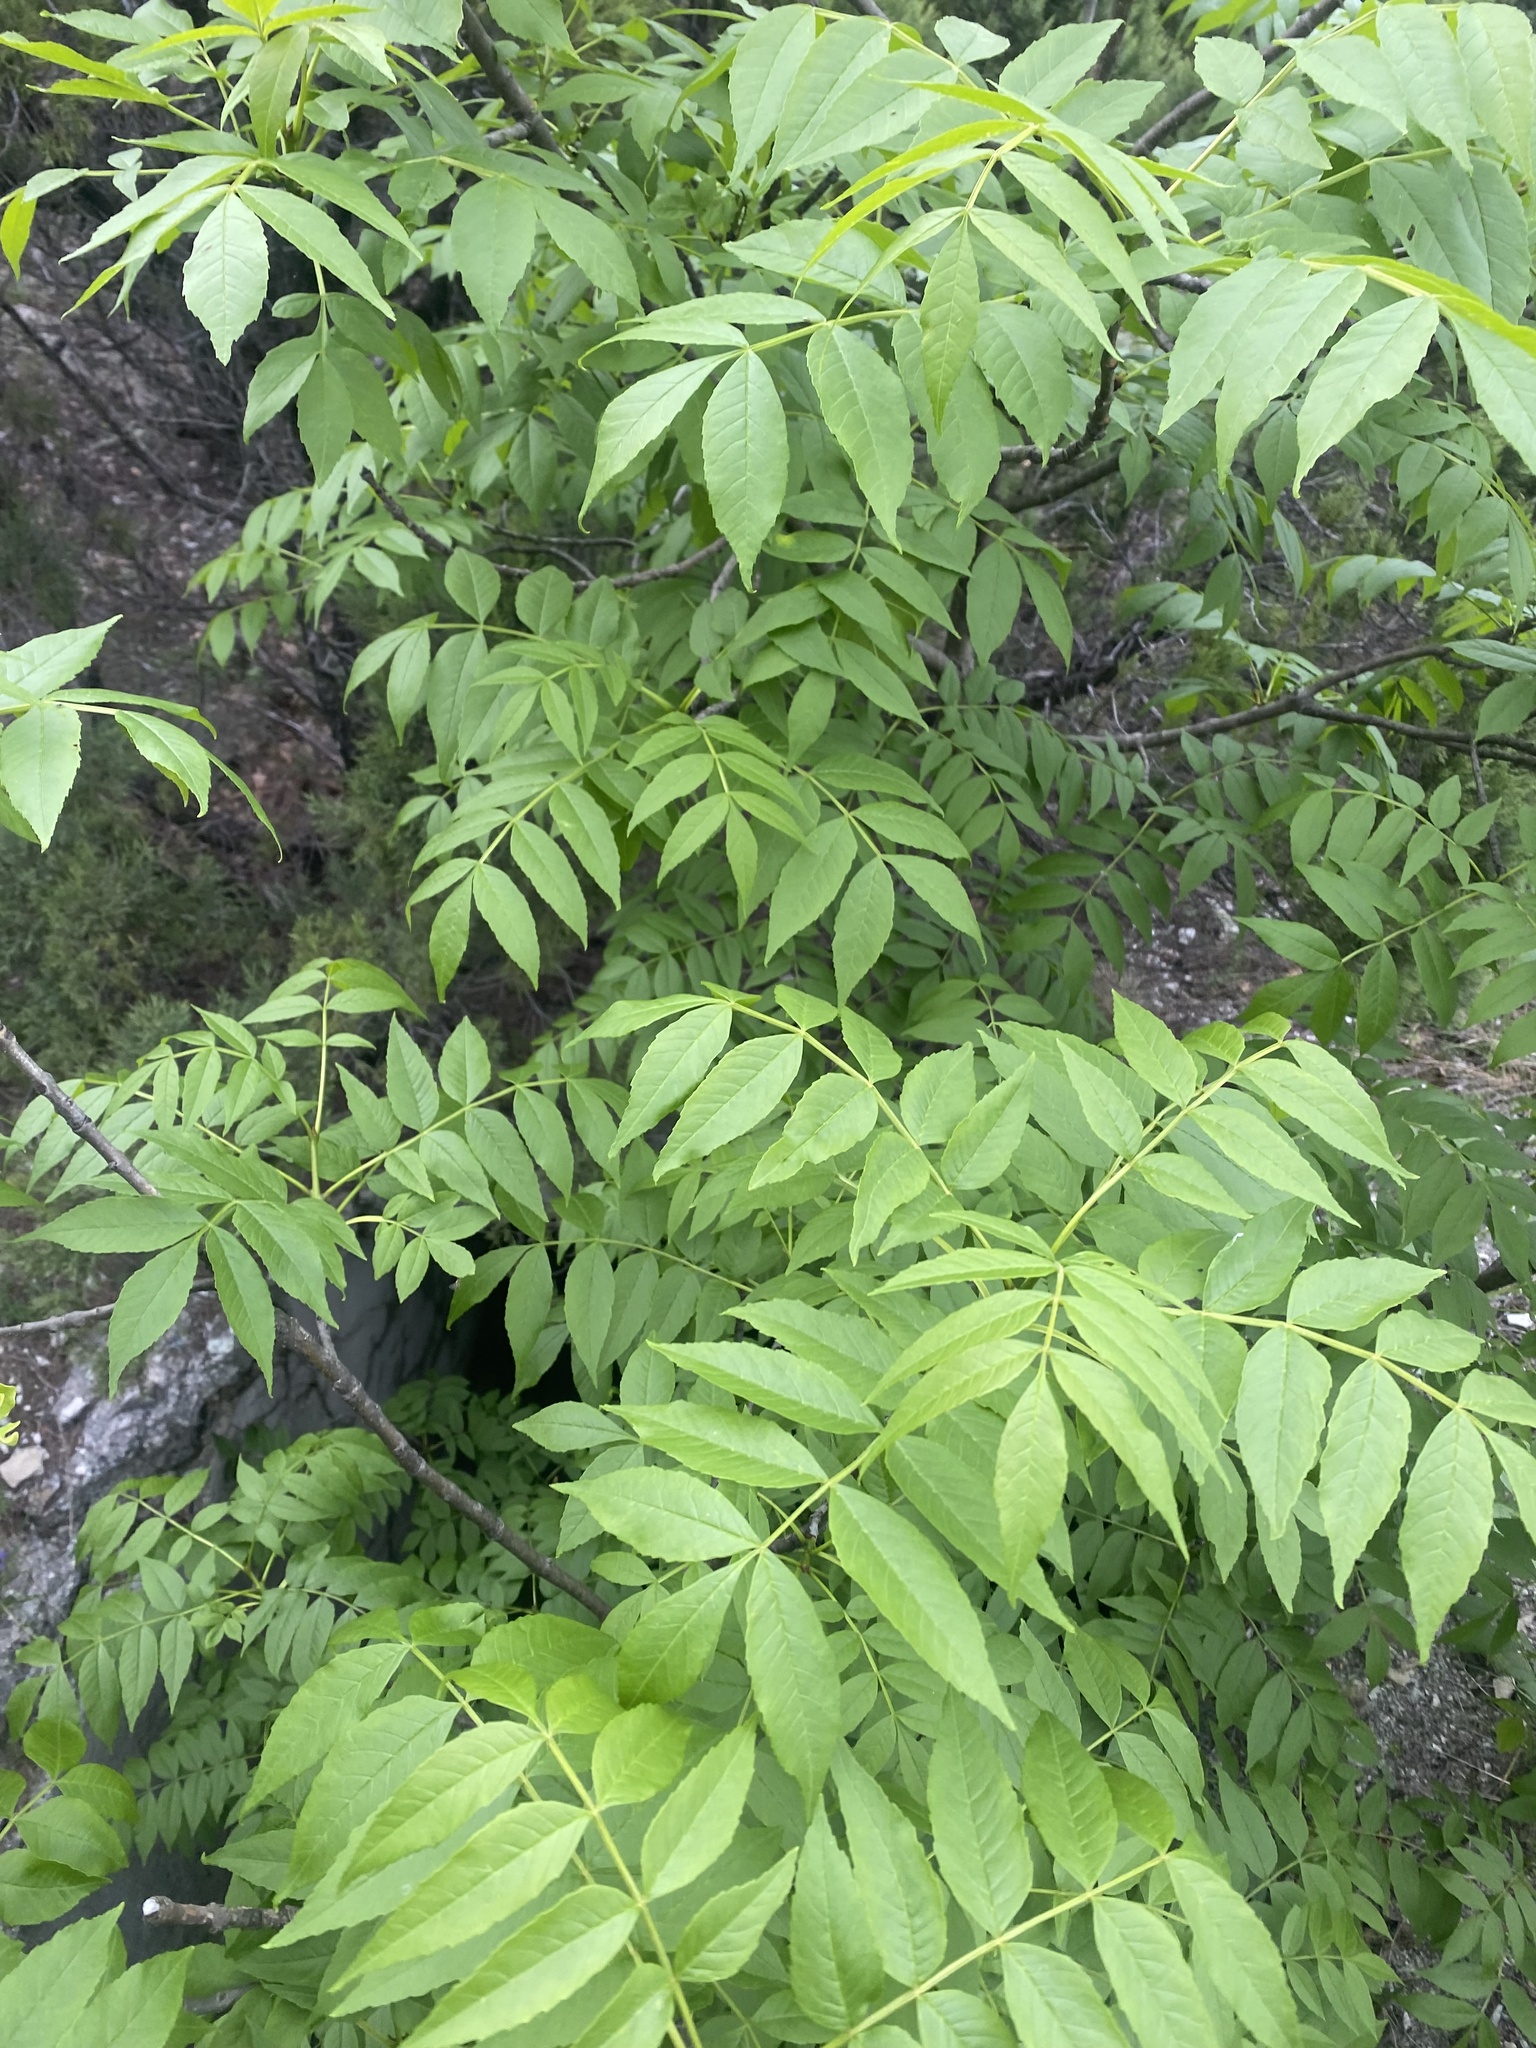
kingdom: Plantae
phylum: Tracheophyta
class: Magnoliopsida
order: Lamiales
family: Oleaceae
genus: Fraxinus
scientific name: Fraxinus angustifolia
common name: Narrow-leafed ash
